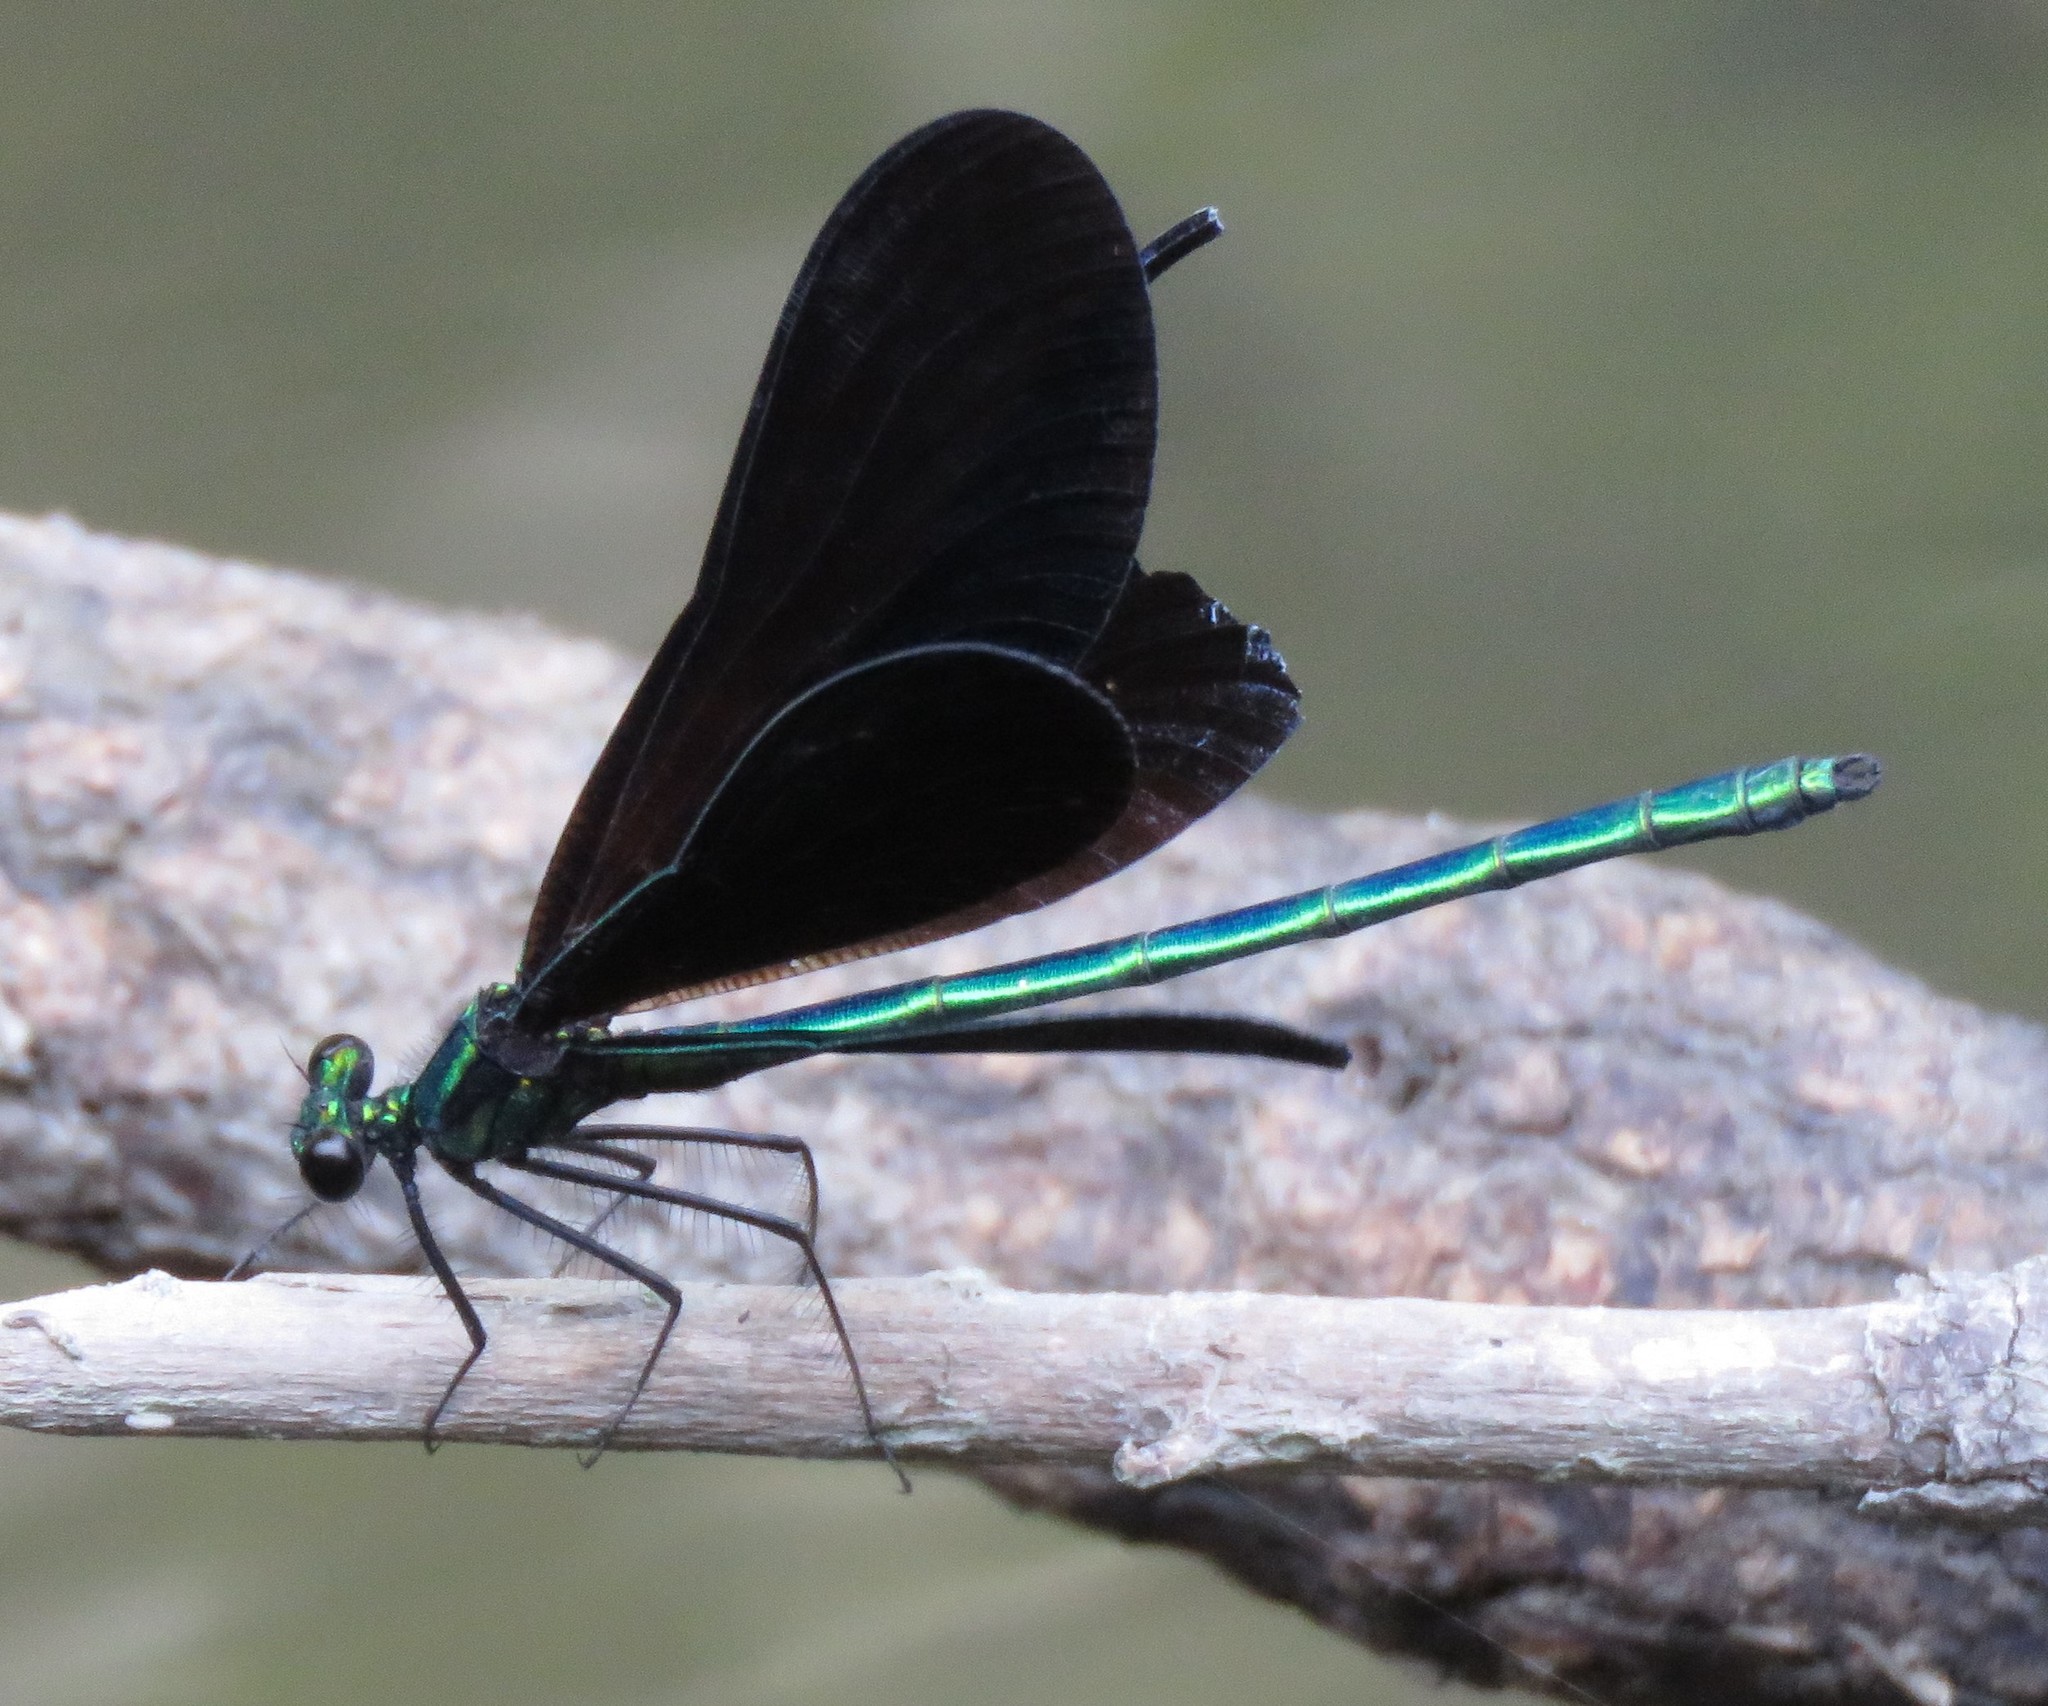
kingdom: Animalia
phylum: Arthropoda
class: Insecta
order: Odonata
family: Calopterygidae
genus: Calopteryx
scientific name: Calopteryx maculata
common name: Ebony jewelwing
